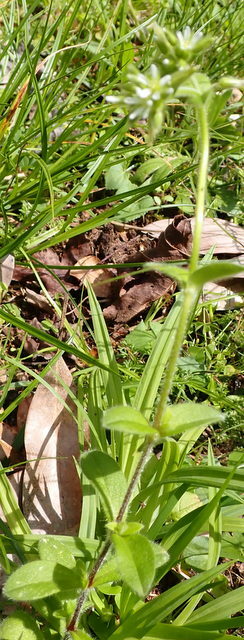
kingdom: Plantae
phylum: Tracheophyta
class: Magnoliopsida
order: Caryophyllales
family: Caryophyllaceae
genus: Cerastium
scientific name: Cerastium glomeratum
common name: Sticky chickweed
